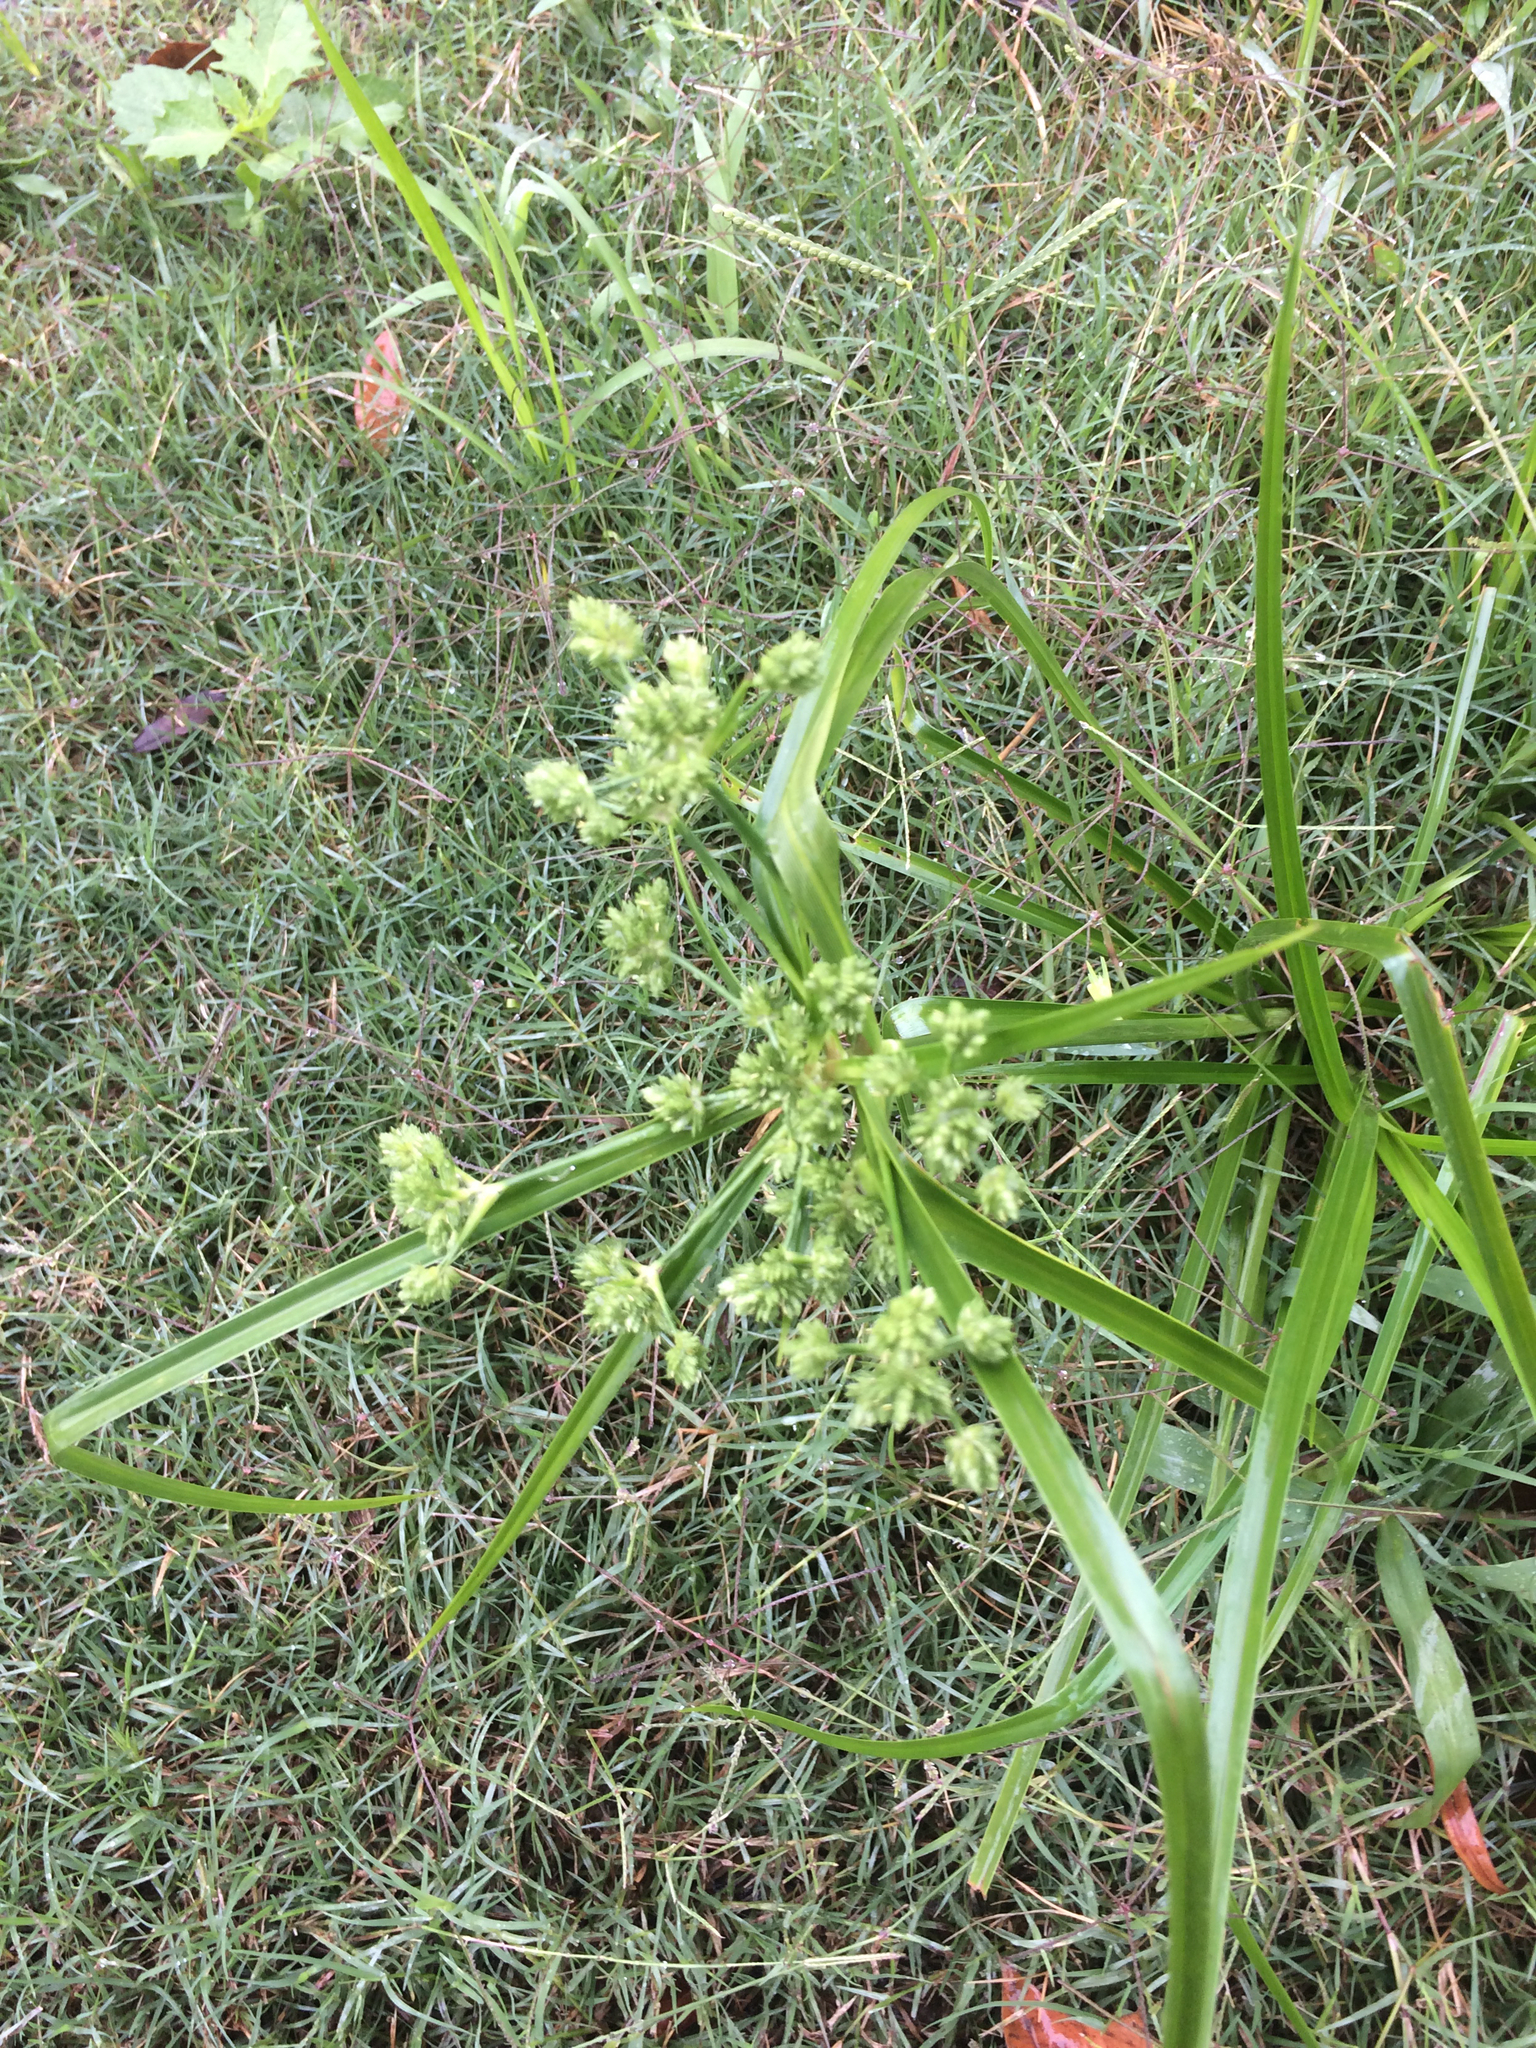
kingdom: Plantae
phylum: Tracheophyta
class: Liliopsida
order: Poales
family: Cyperaceae
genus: Cyperus
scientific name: Cyperus entrerianus
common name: Woodrush flatsedge
